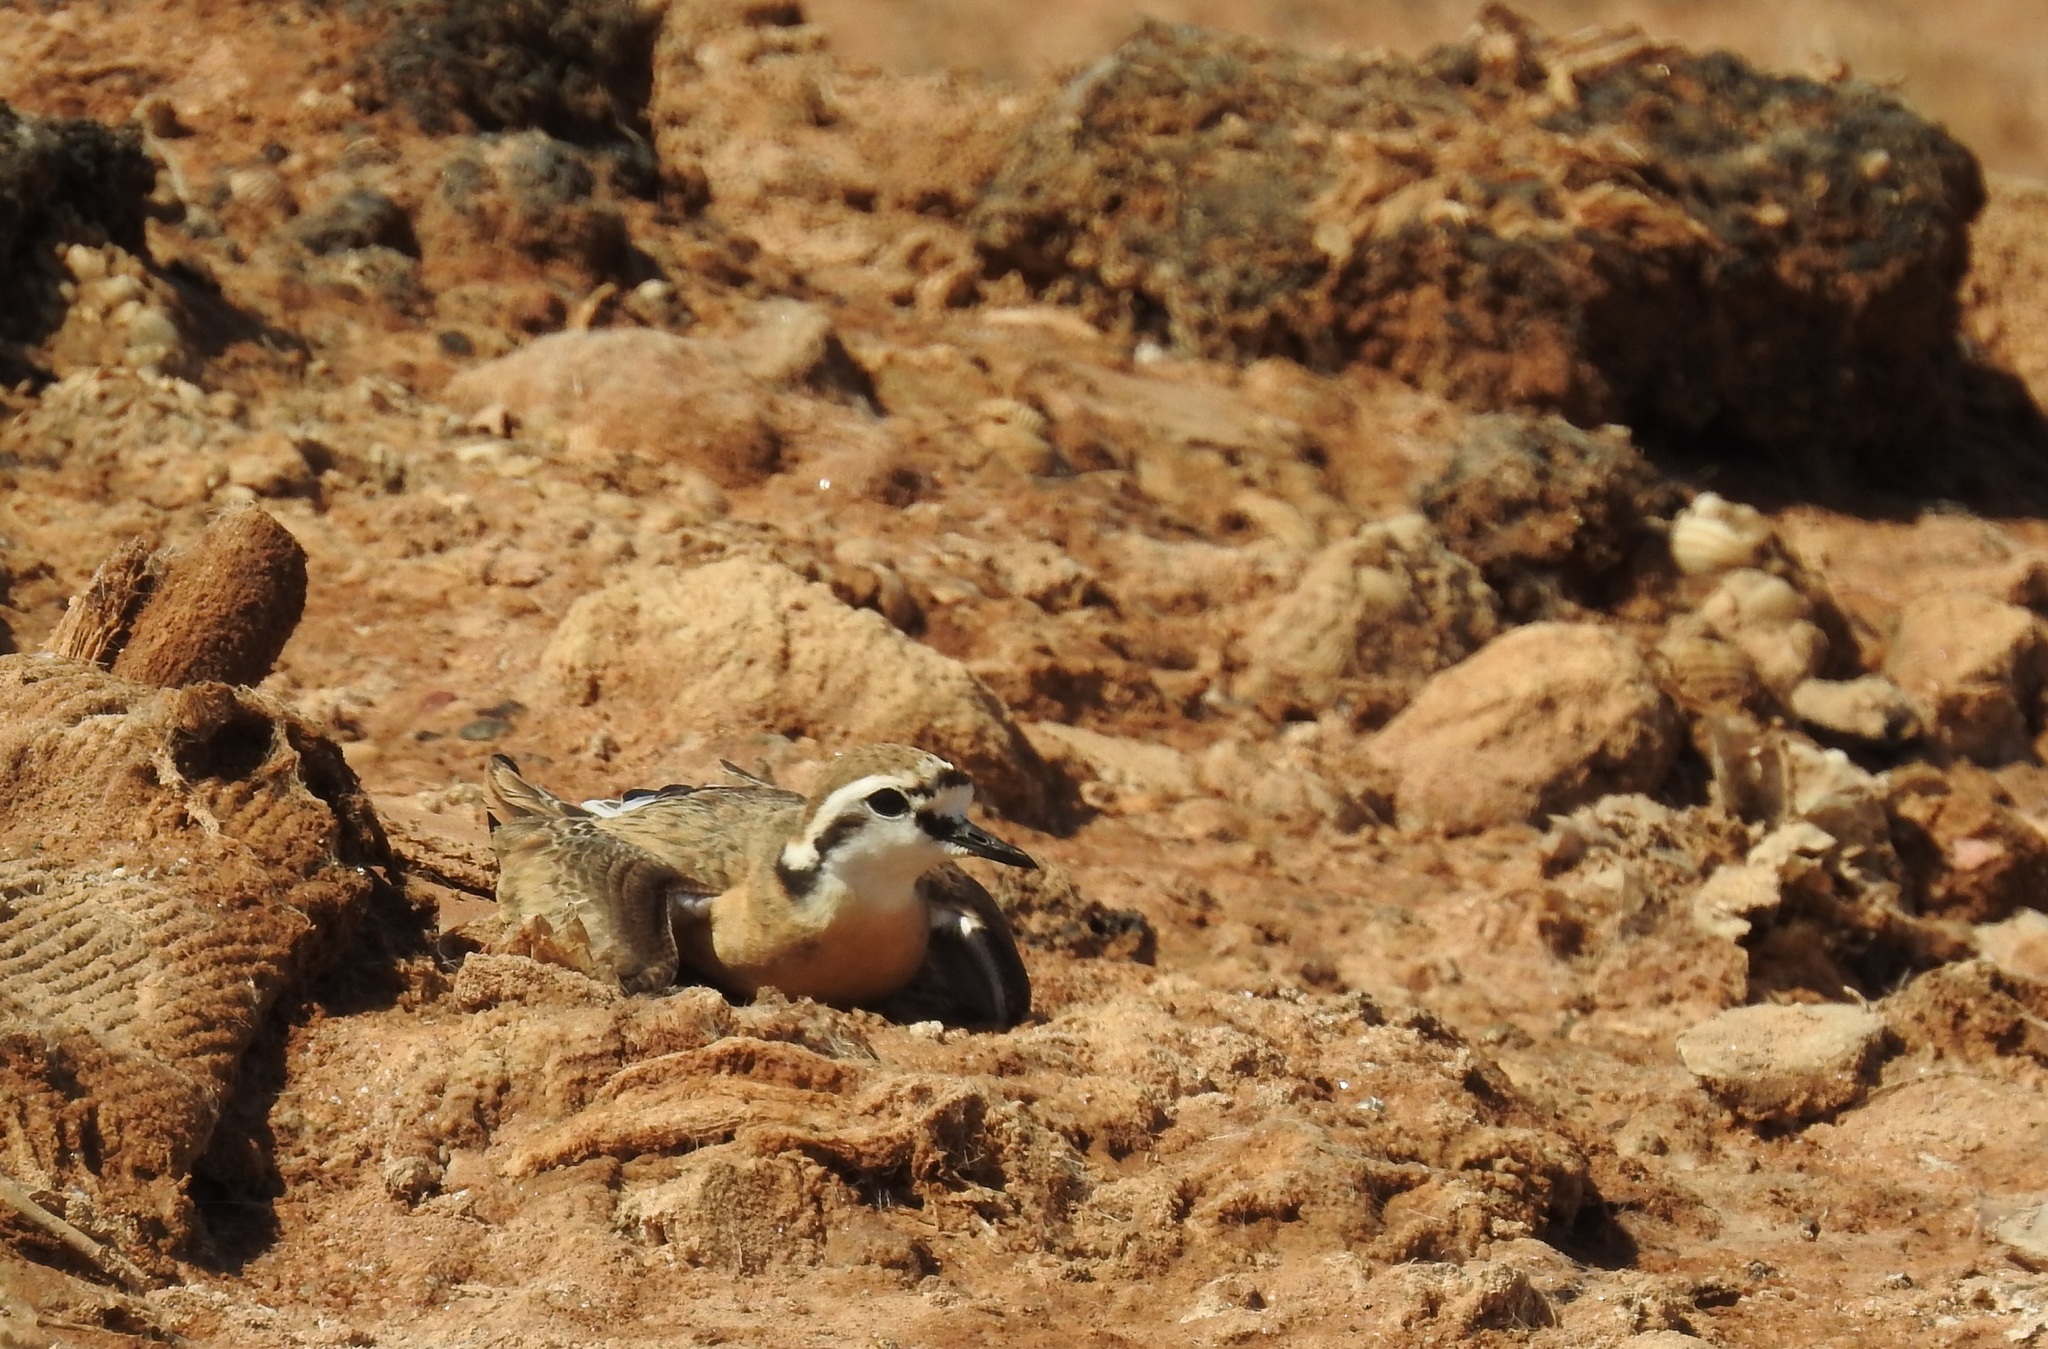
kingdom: Animalia
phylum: Chordata
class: Aves
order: Charadriiformes
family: Charadriidae
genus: Anarhynchus
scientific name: Anarhynchus
